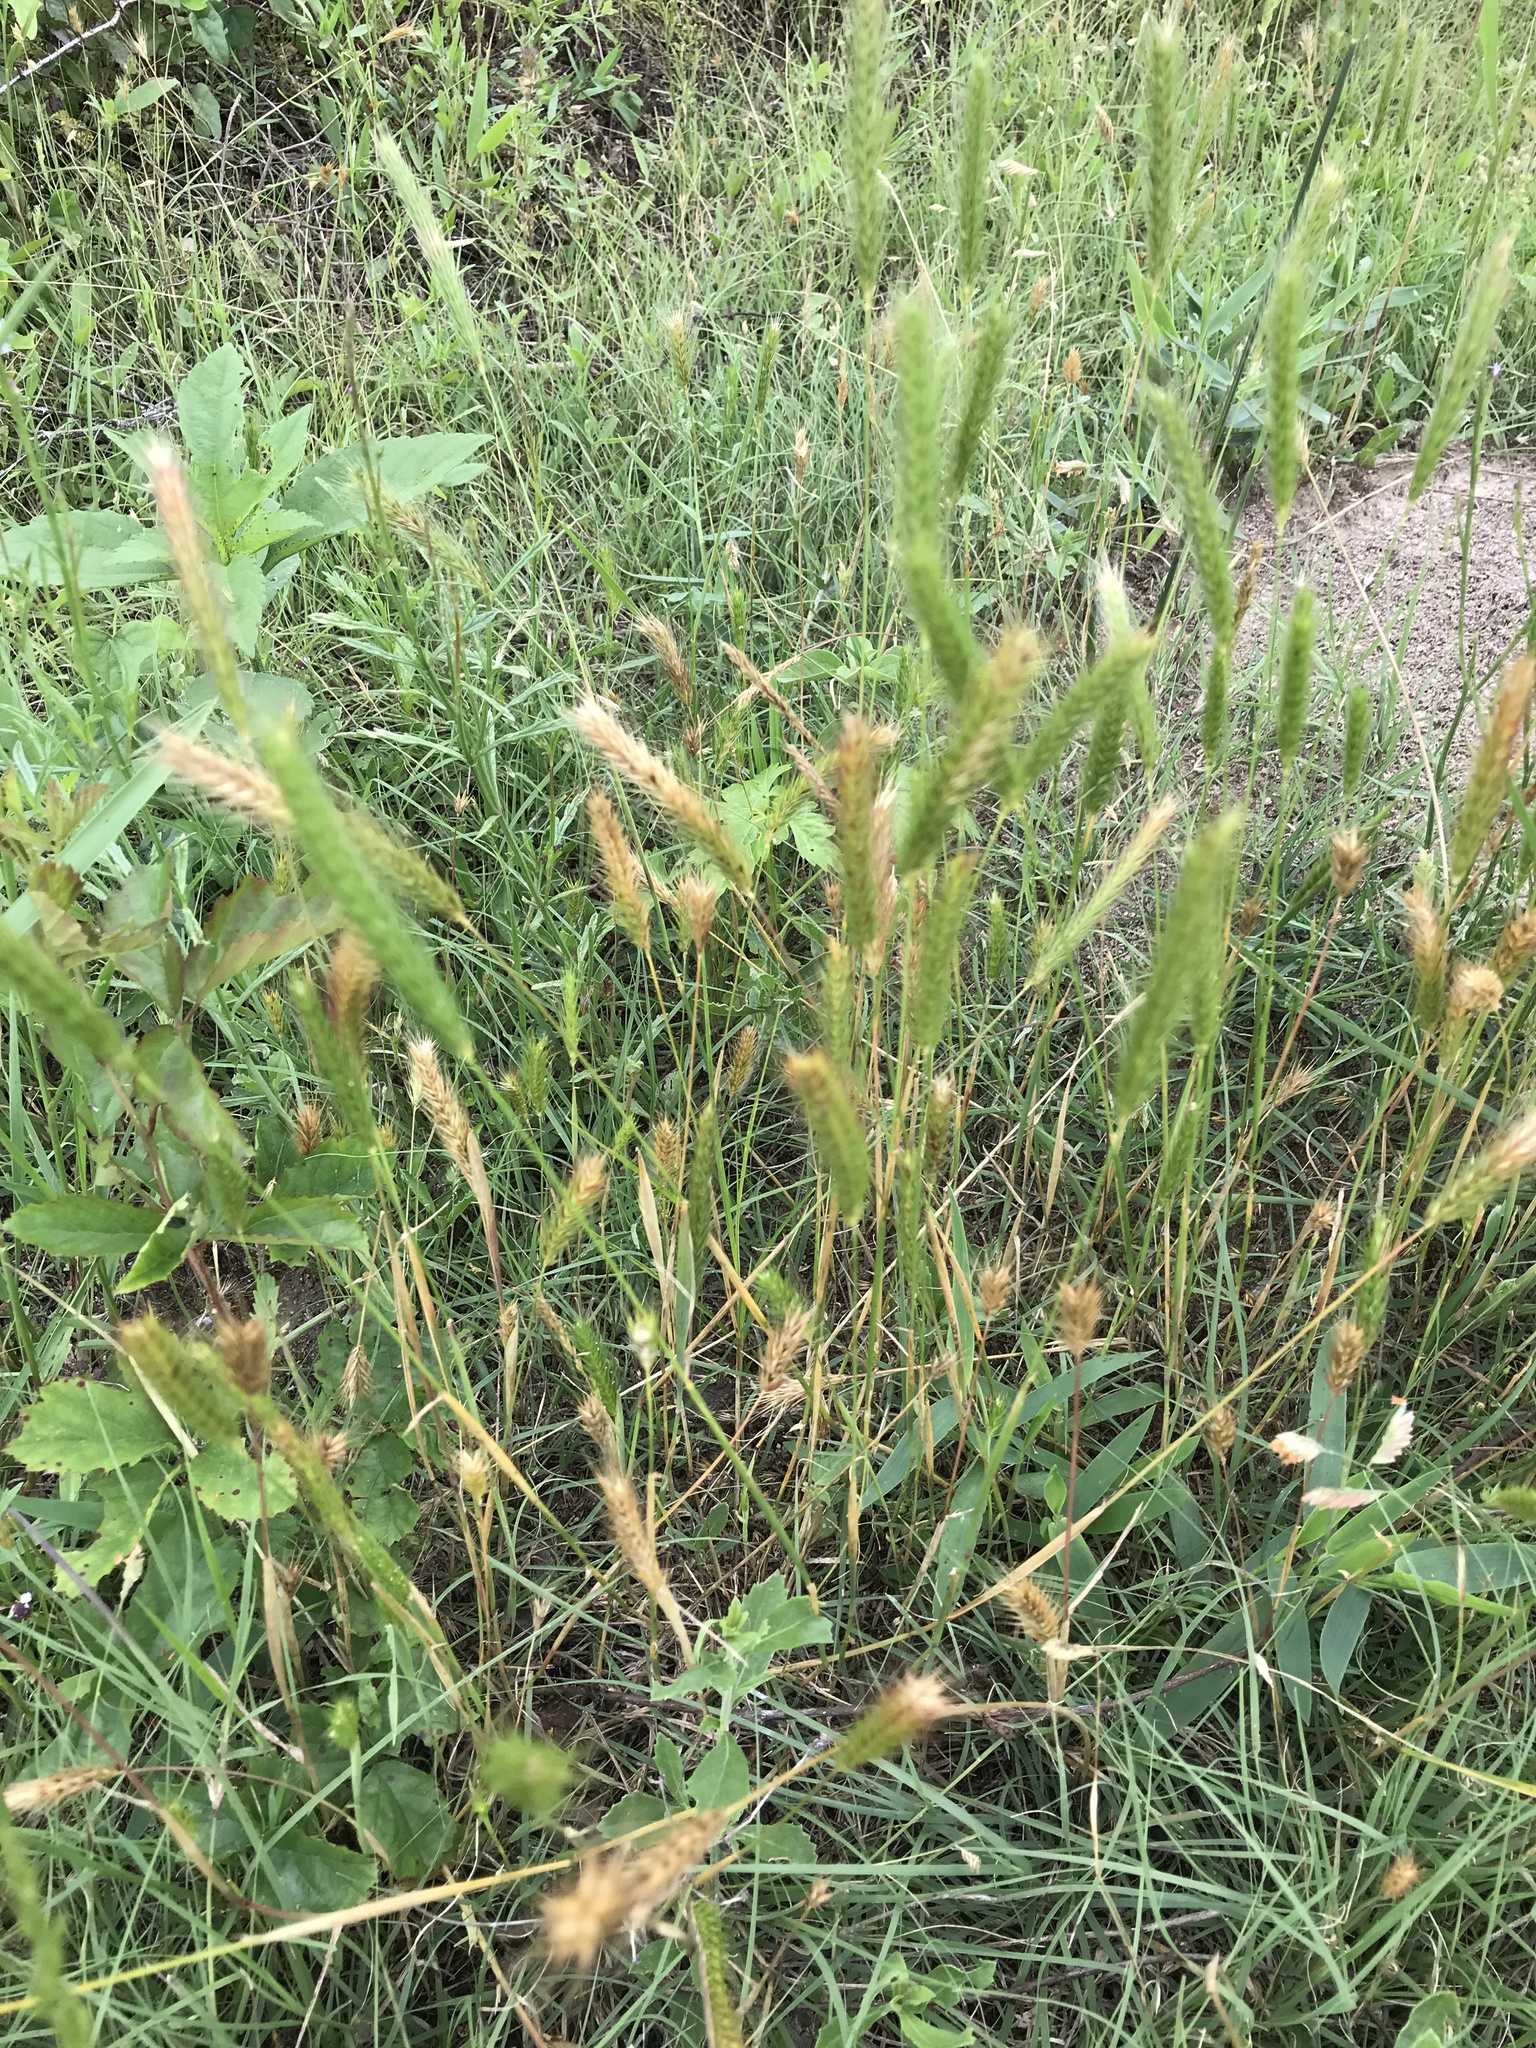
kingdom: Plantae
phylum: Tracheophyta
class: Liliopsida
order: Poales
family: Poaceae
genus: Hordeum
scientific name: Hordeum pusillum
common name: Little barley
